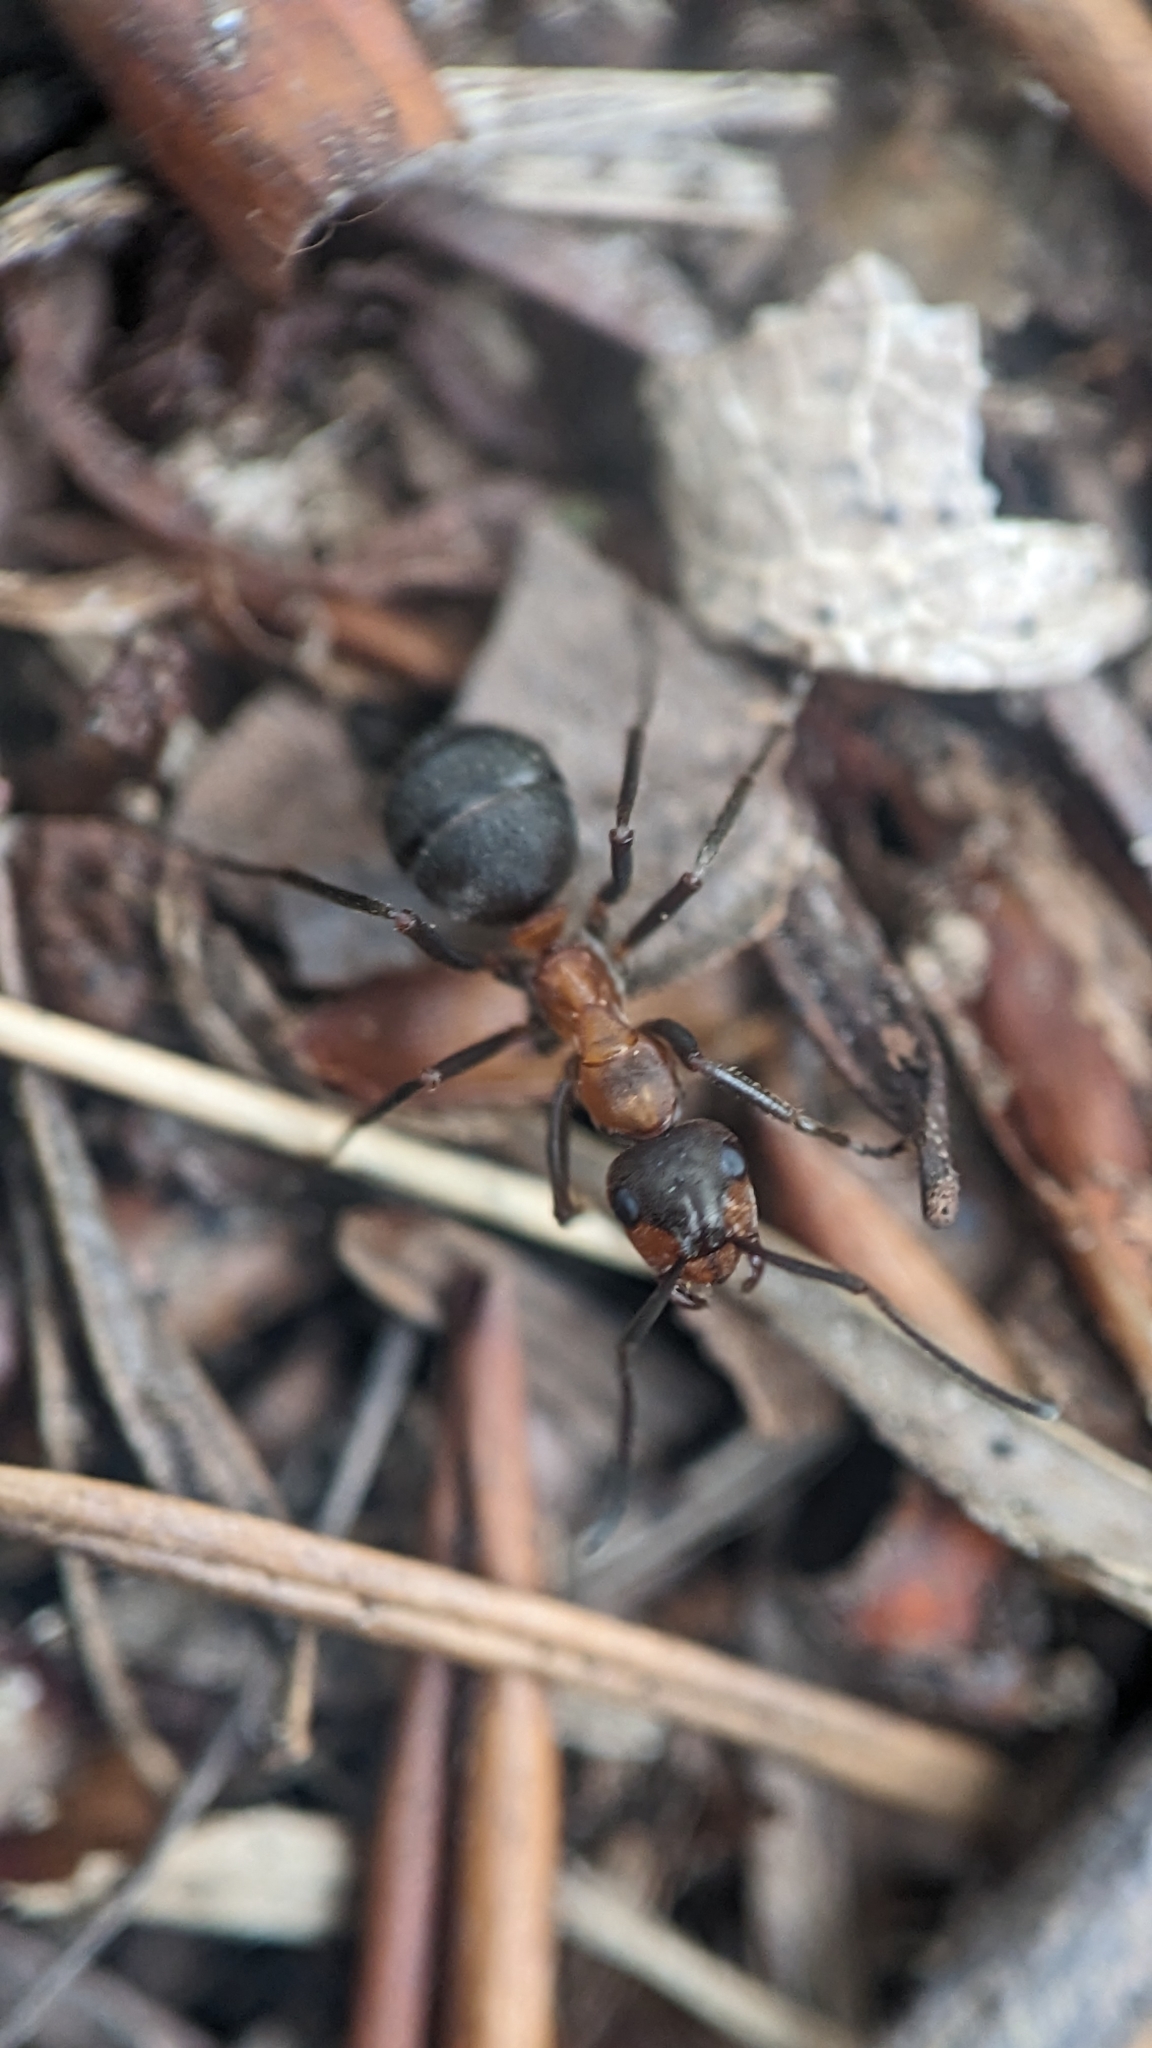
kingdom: Animalia
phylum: Arthropoda
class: Insecta
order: Hymenoptera
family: Formicidae
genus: Formica
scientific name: Formica
